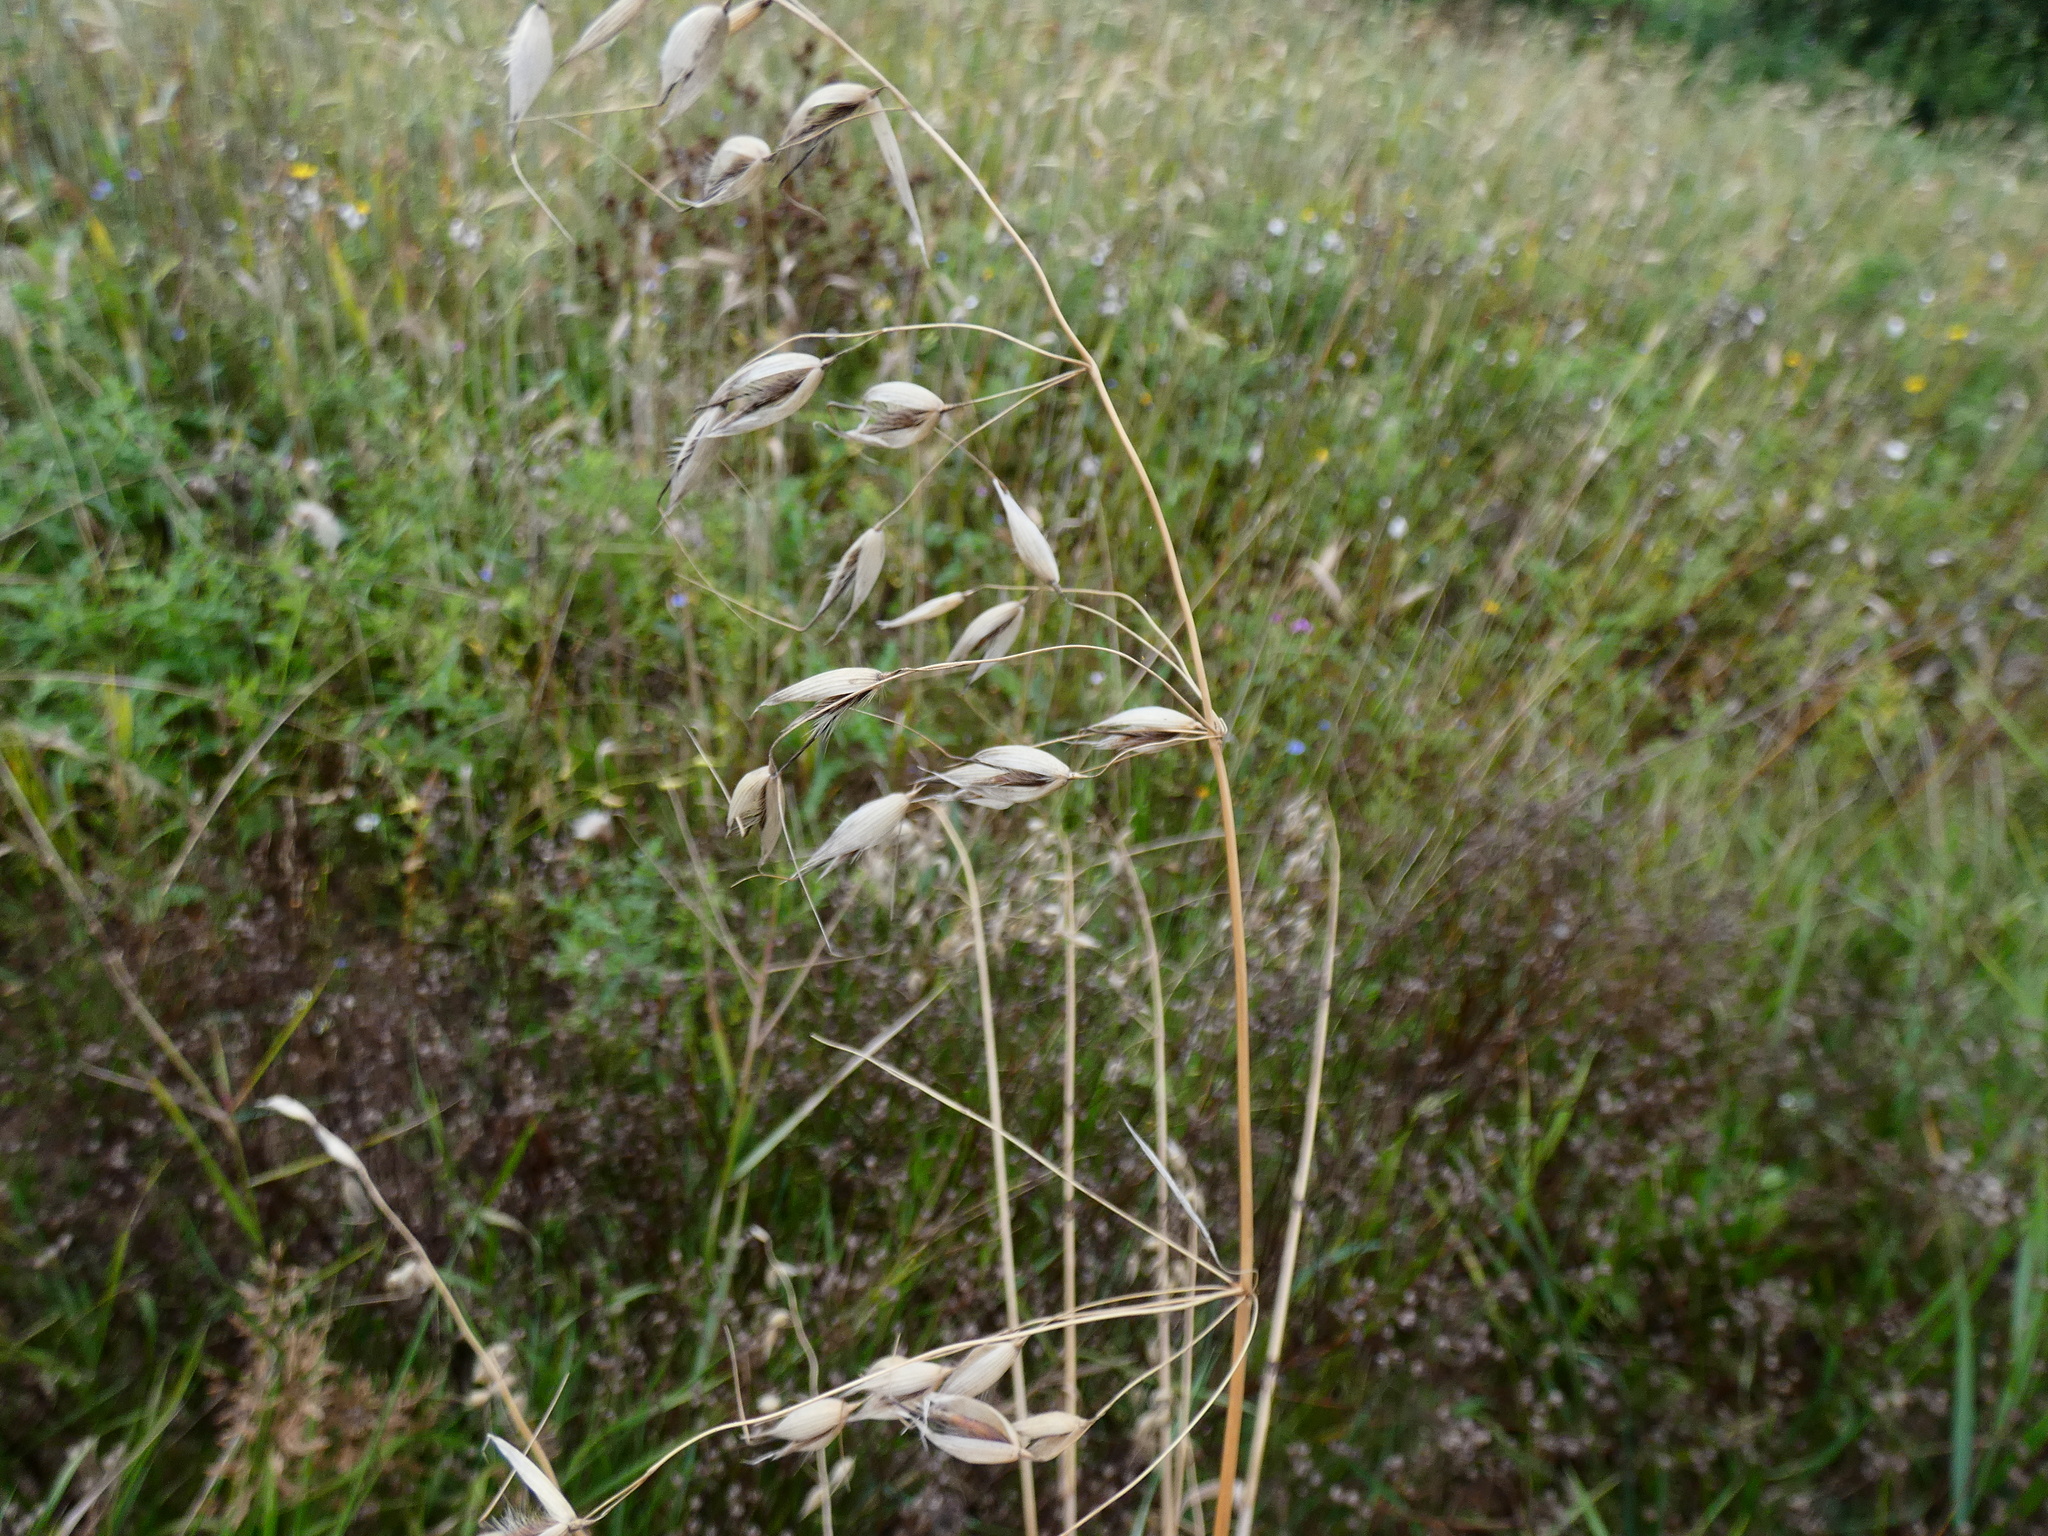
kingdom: Plantae
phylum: Tracheophyta
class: Liliopsida
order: Poales
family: Poaceae
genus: Avena
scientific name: Avena fatua
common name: Wild oat
